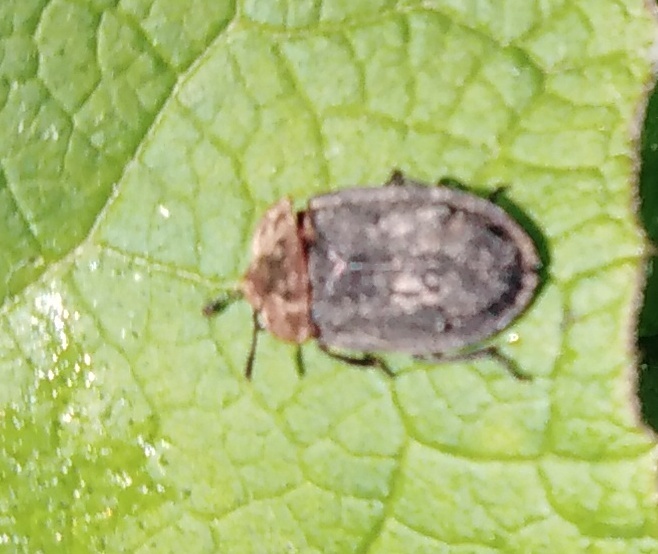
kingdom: Animalia
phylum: Arthropoda
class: Insecta
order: Coleoptera
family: Staphylinidae
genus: Oiceoptoma
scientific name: Oiceoptoma thoracicum
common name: Red-breasted carrion beetle
